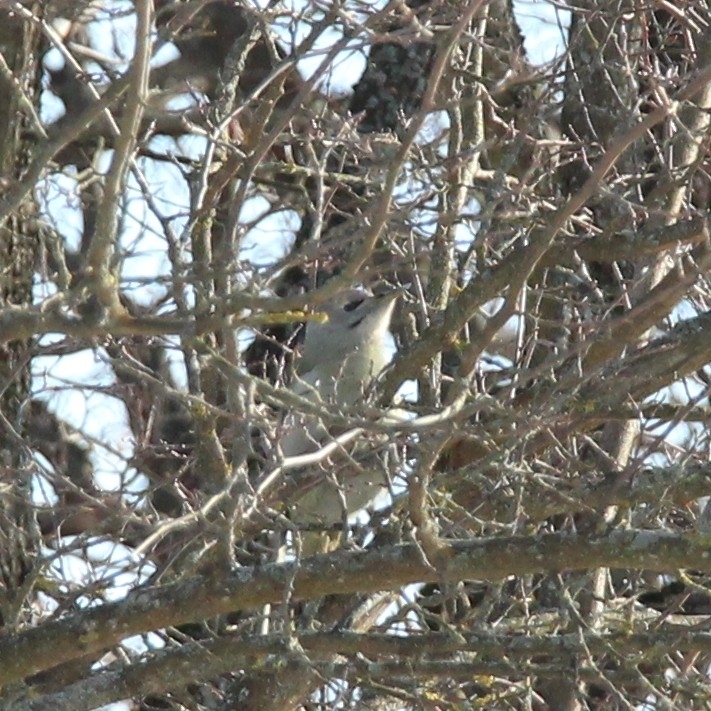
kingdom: Animalia
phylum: Chordata
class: Aves
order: Piciformes
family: Picidae
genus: Picus
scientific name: Picus canus
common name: Grey-headed woodpecker
